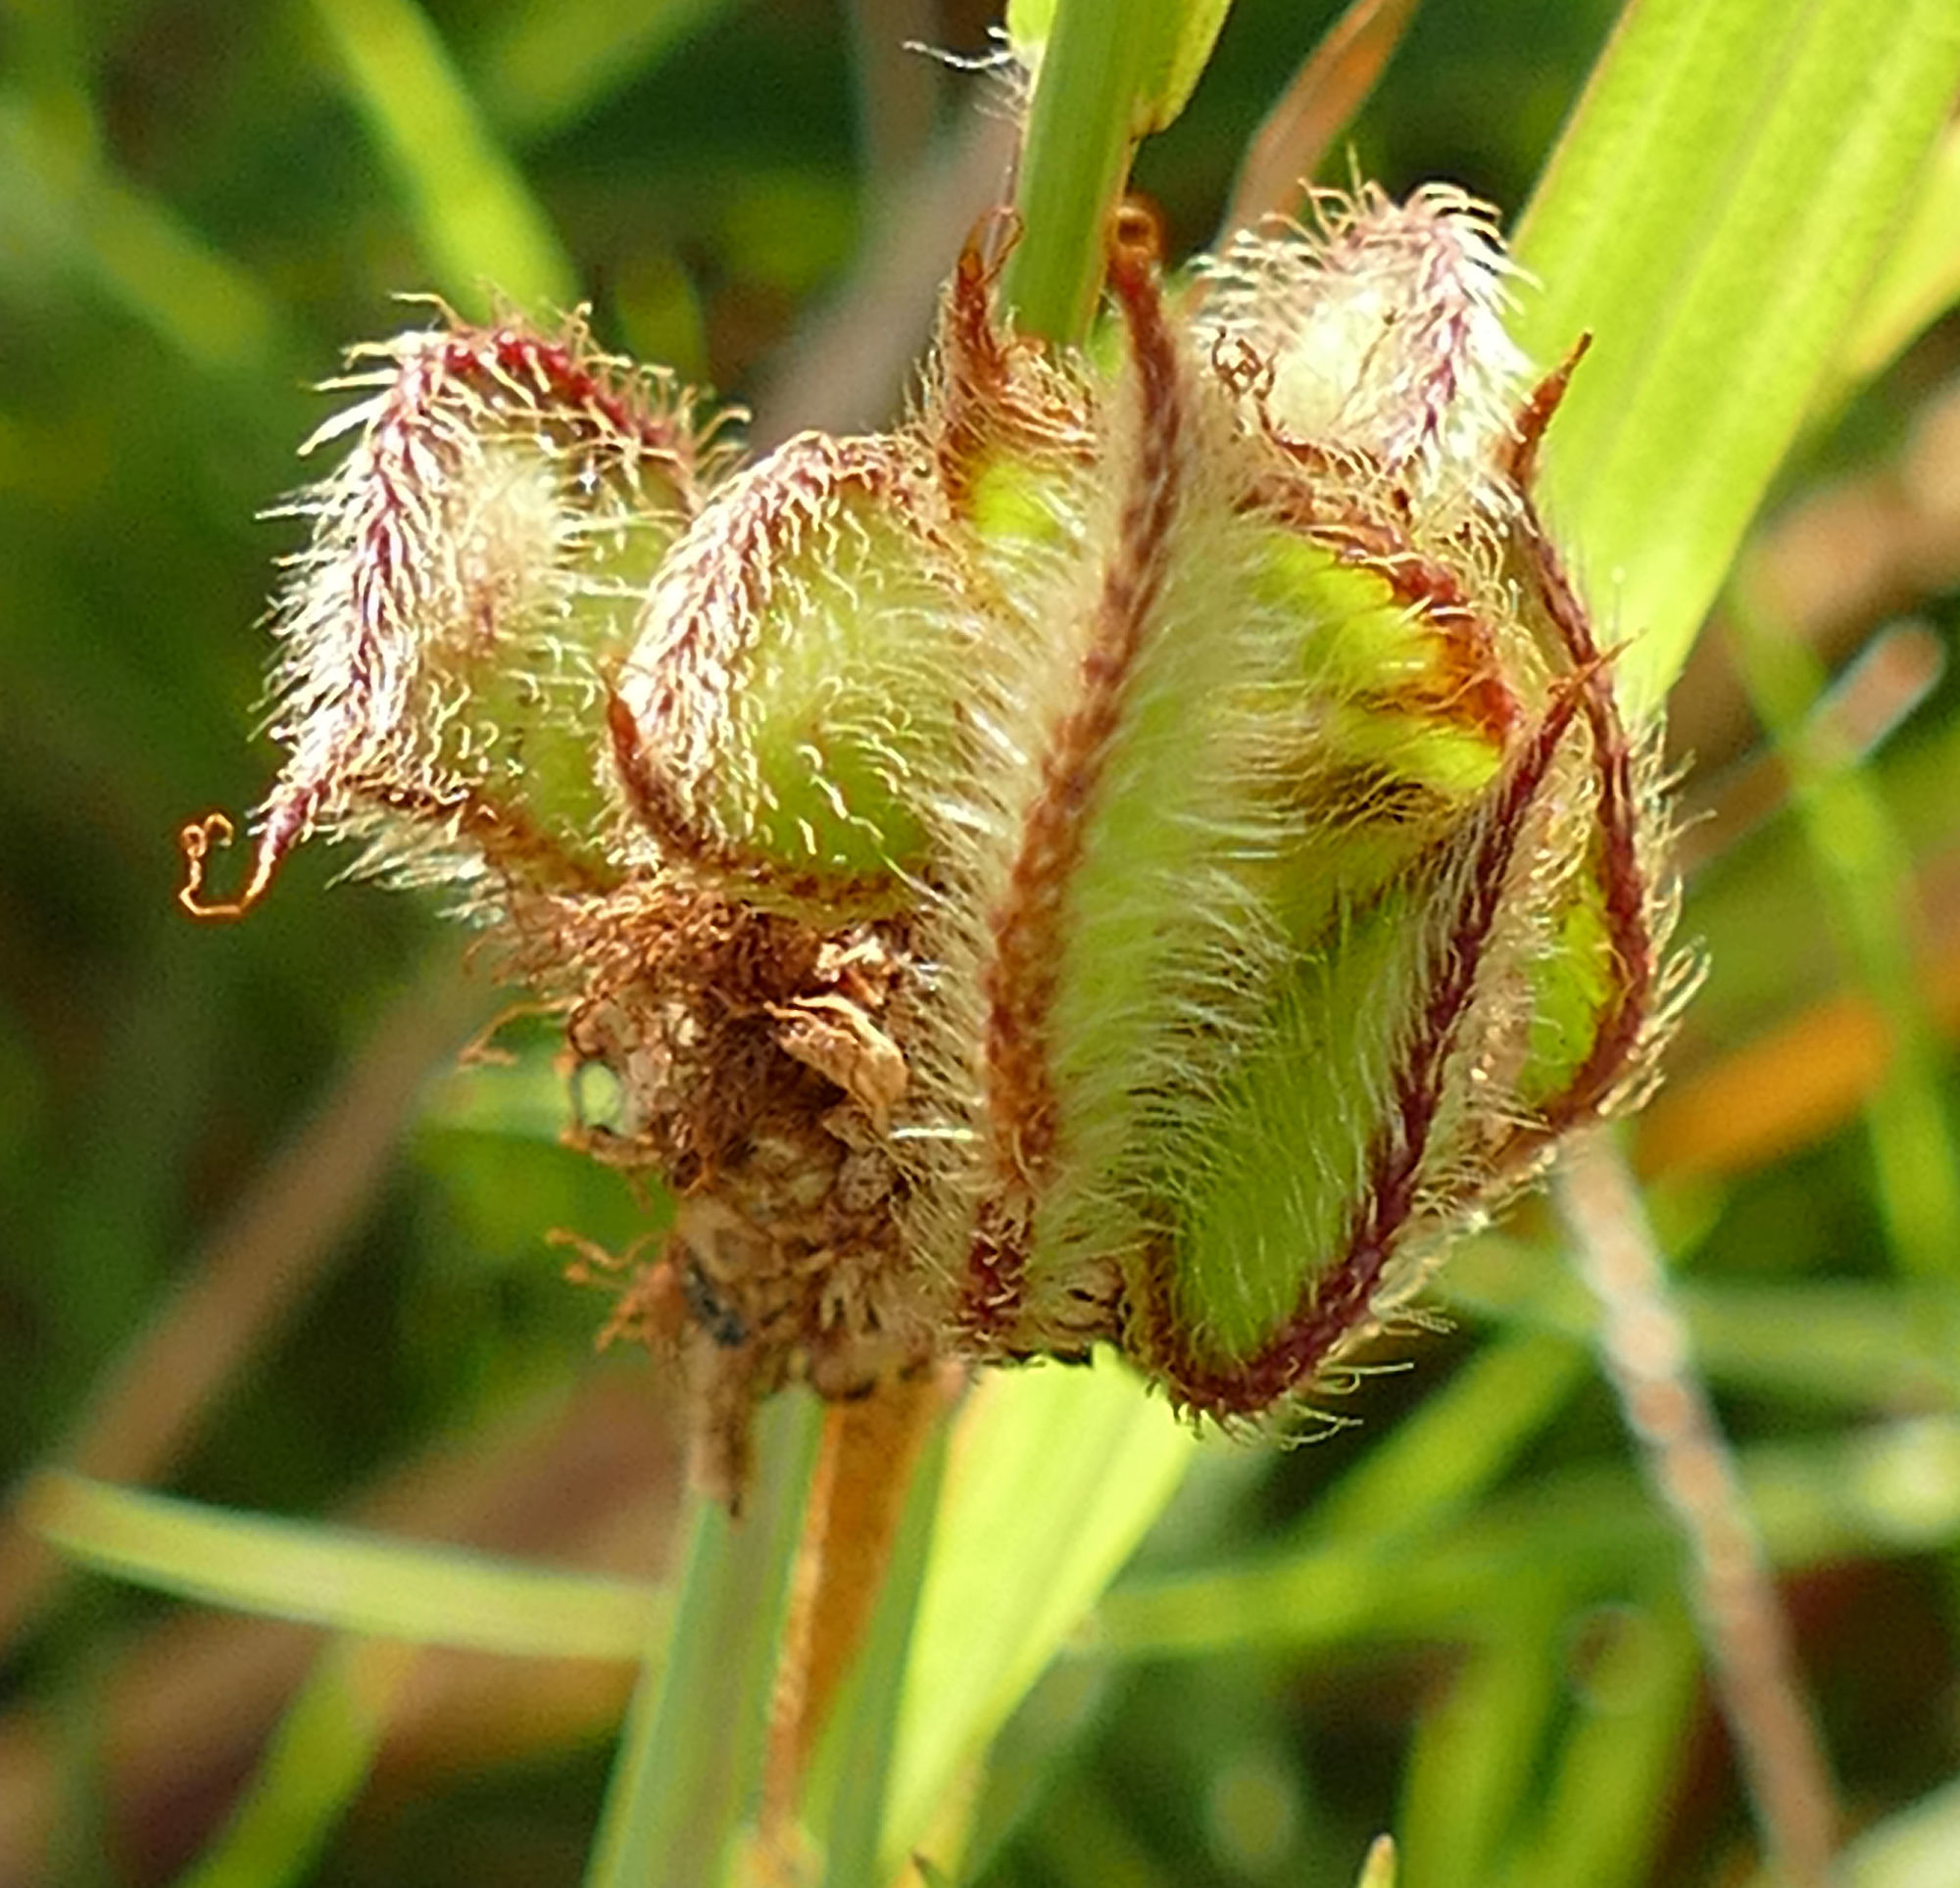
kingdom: Plantae
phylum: Tracheophyta
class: Magnoliopsida
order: Fabales
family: Fabaceae
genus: Mimosa
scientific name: Mimosa strigillosa
